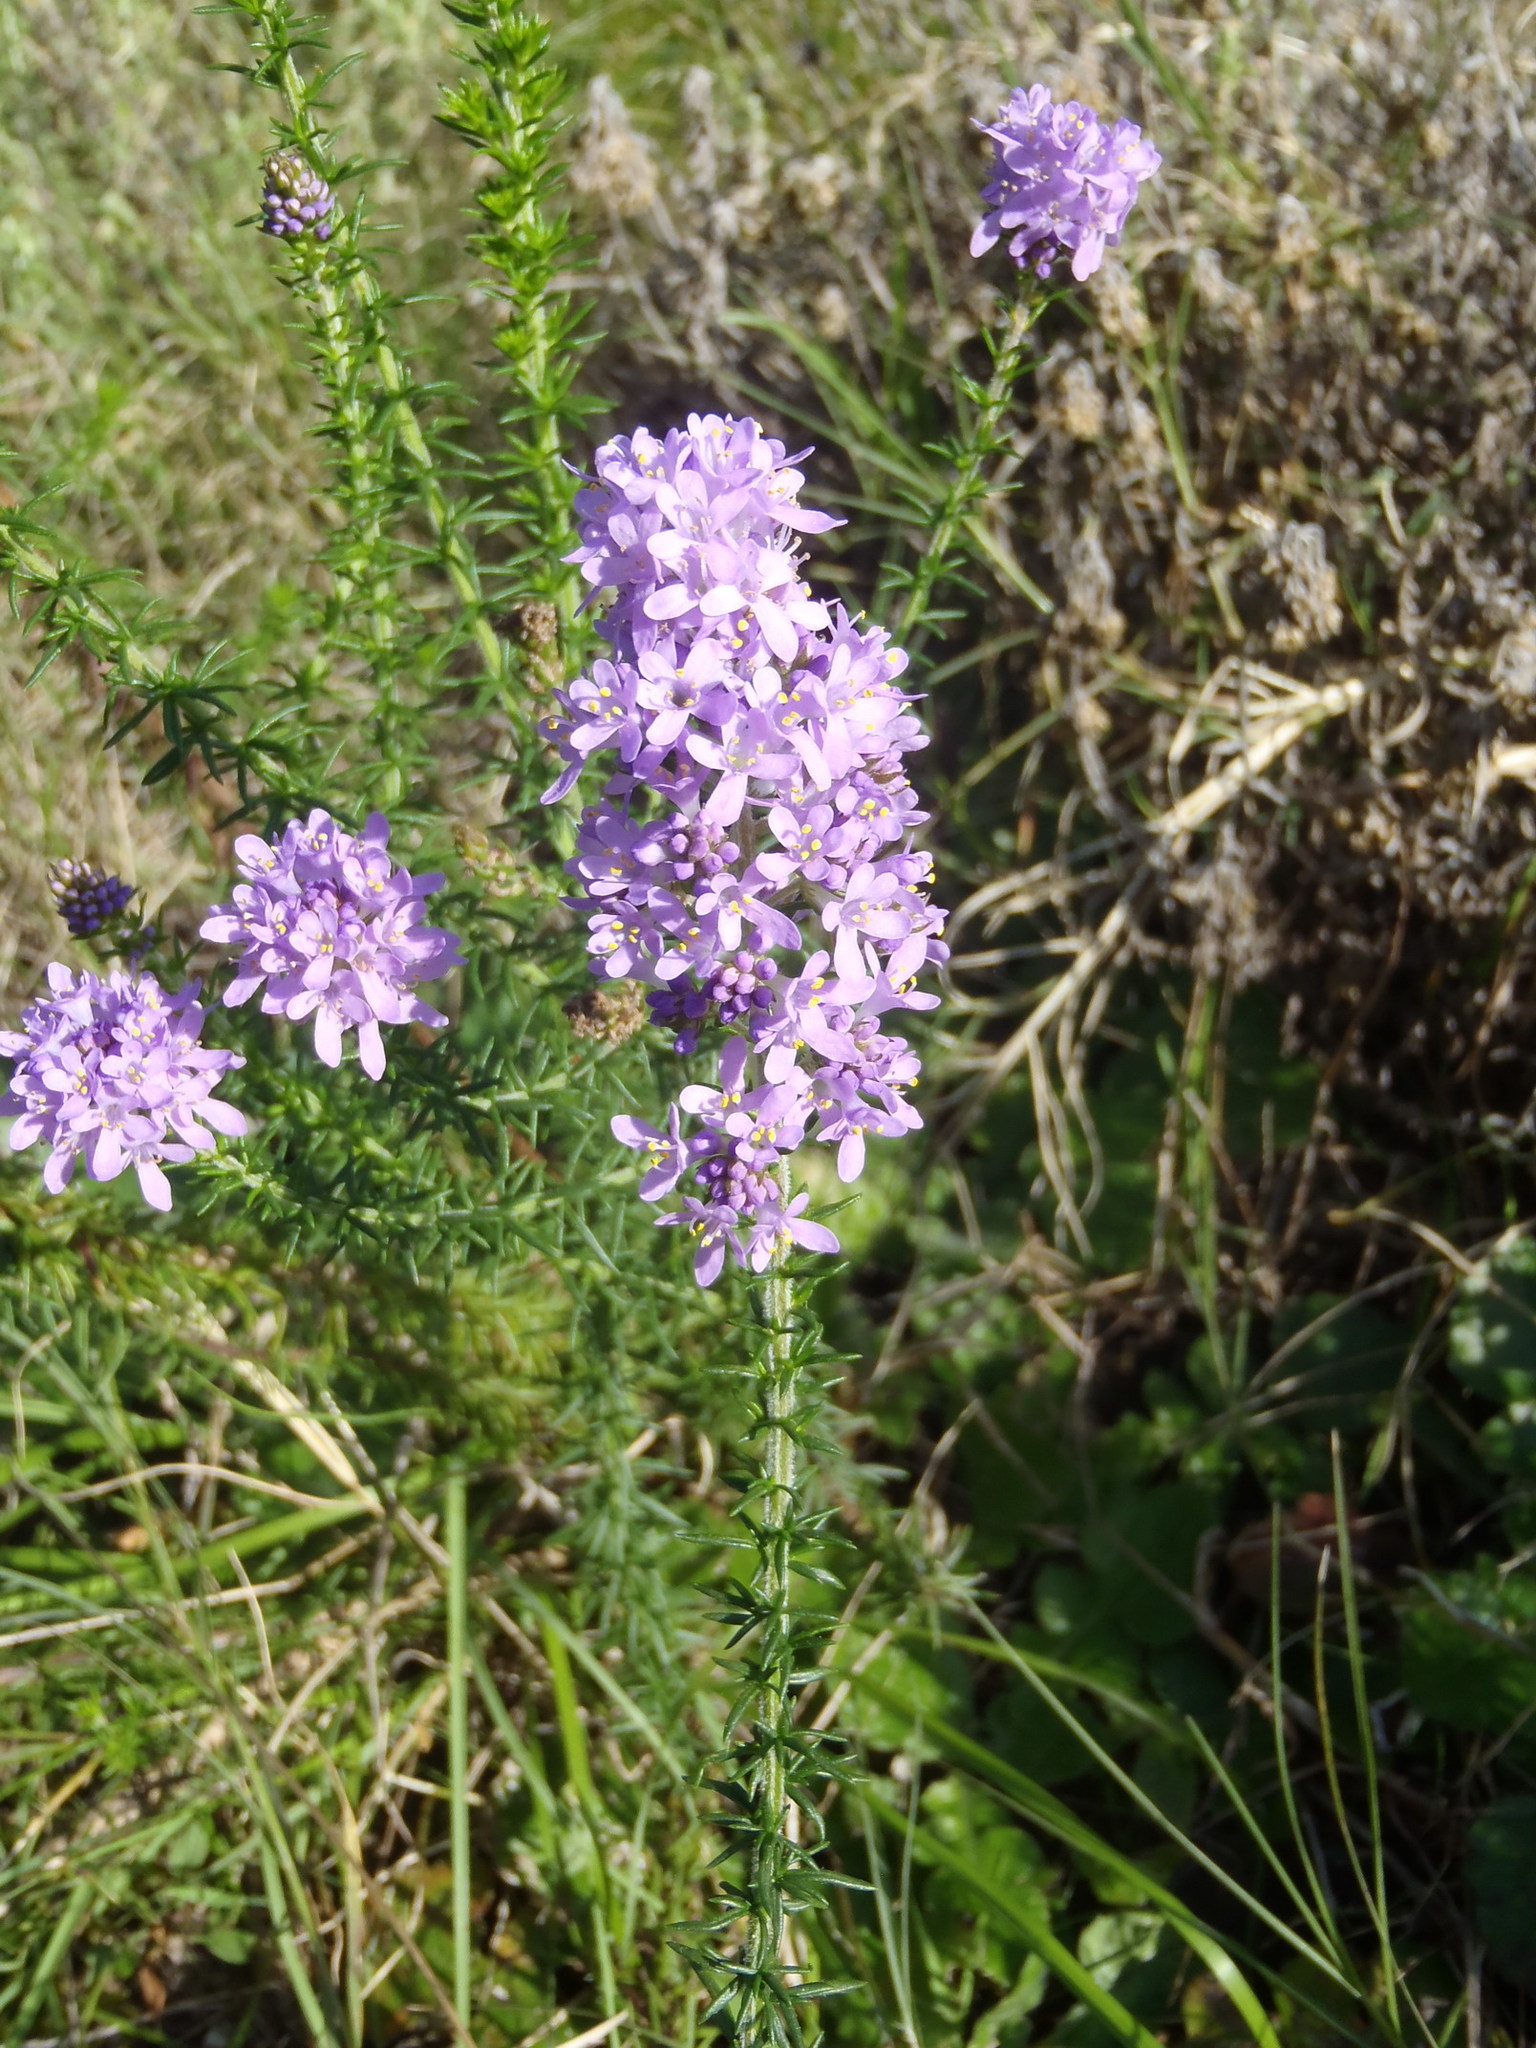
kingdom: Plantae
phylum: Tracheophyta
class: Magnoliopsida
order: Lamiales
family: Scrophulariaceae
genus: Selago
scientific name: Selago canescens
